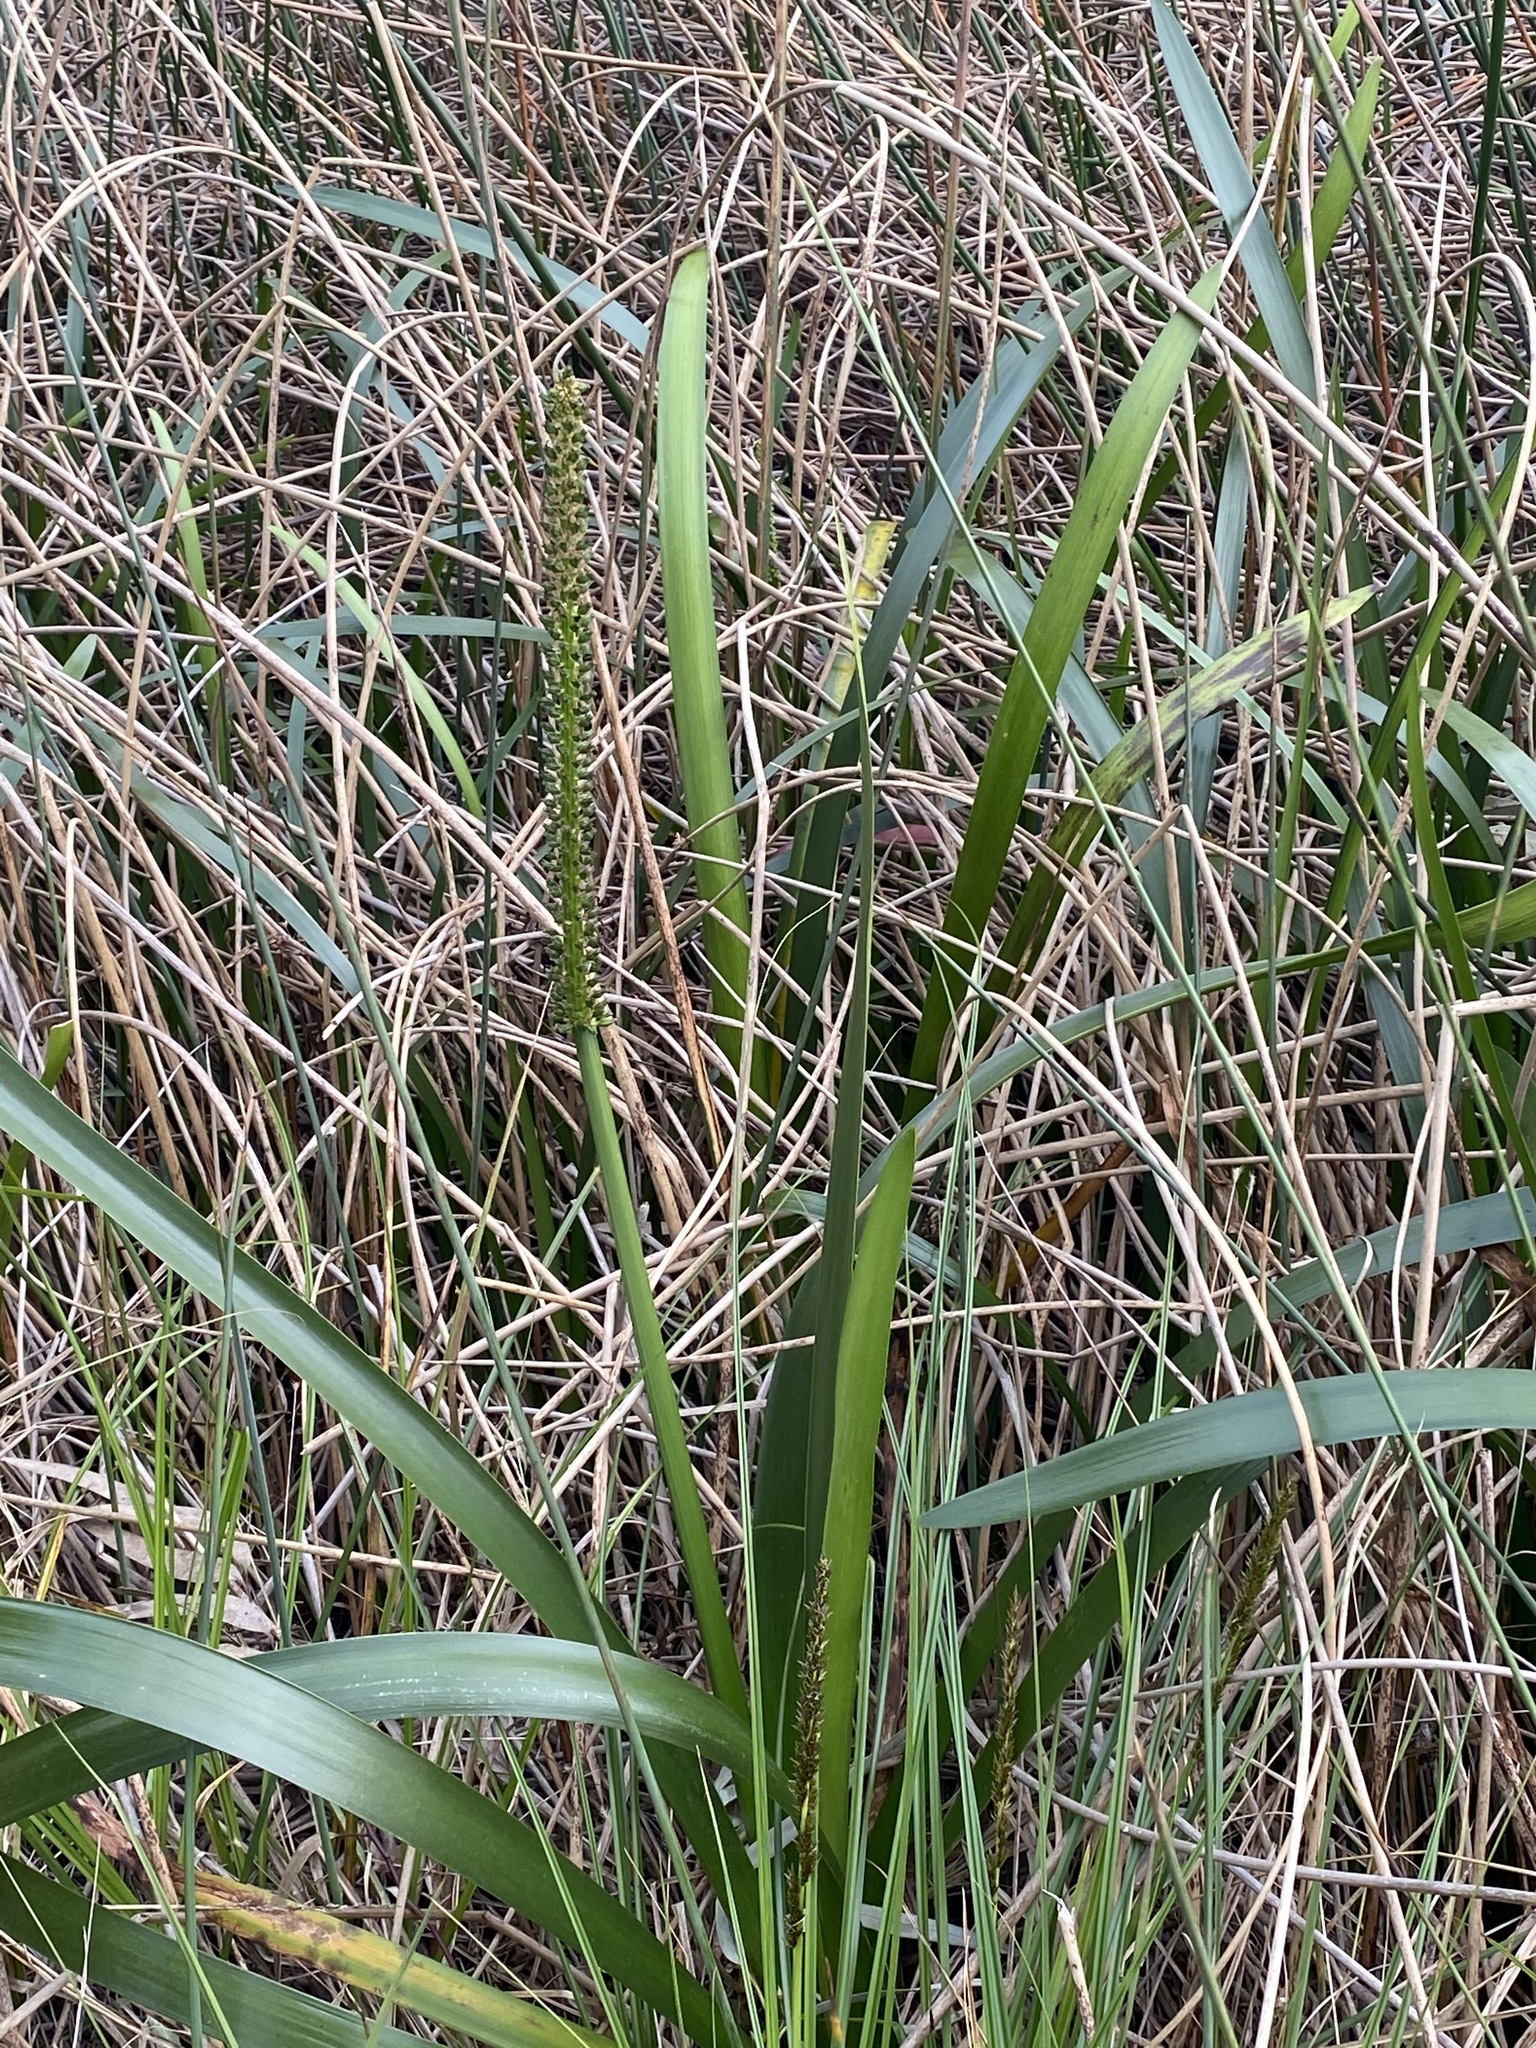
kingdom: Plantae
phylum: Tracheophyta
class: Liliopsida
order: Alismatales
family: Juncaginaceae
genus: Cycnogeton
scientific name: Cycnogeton procerum
